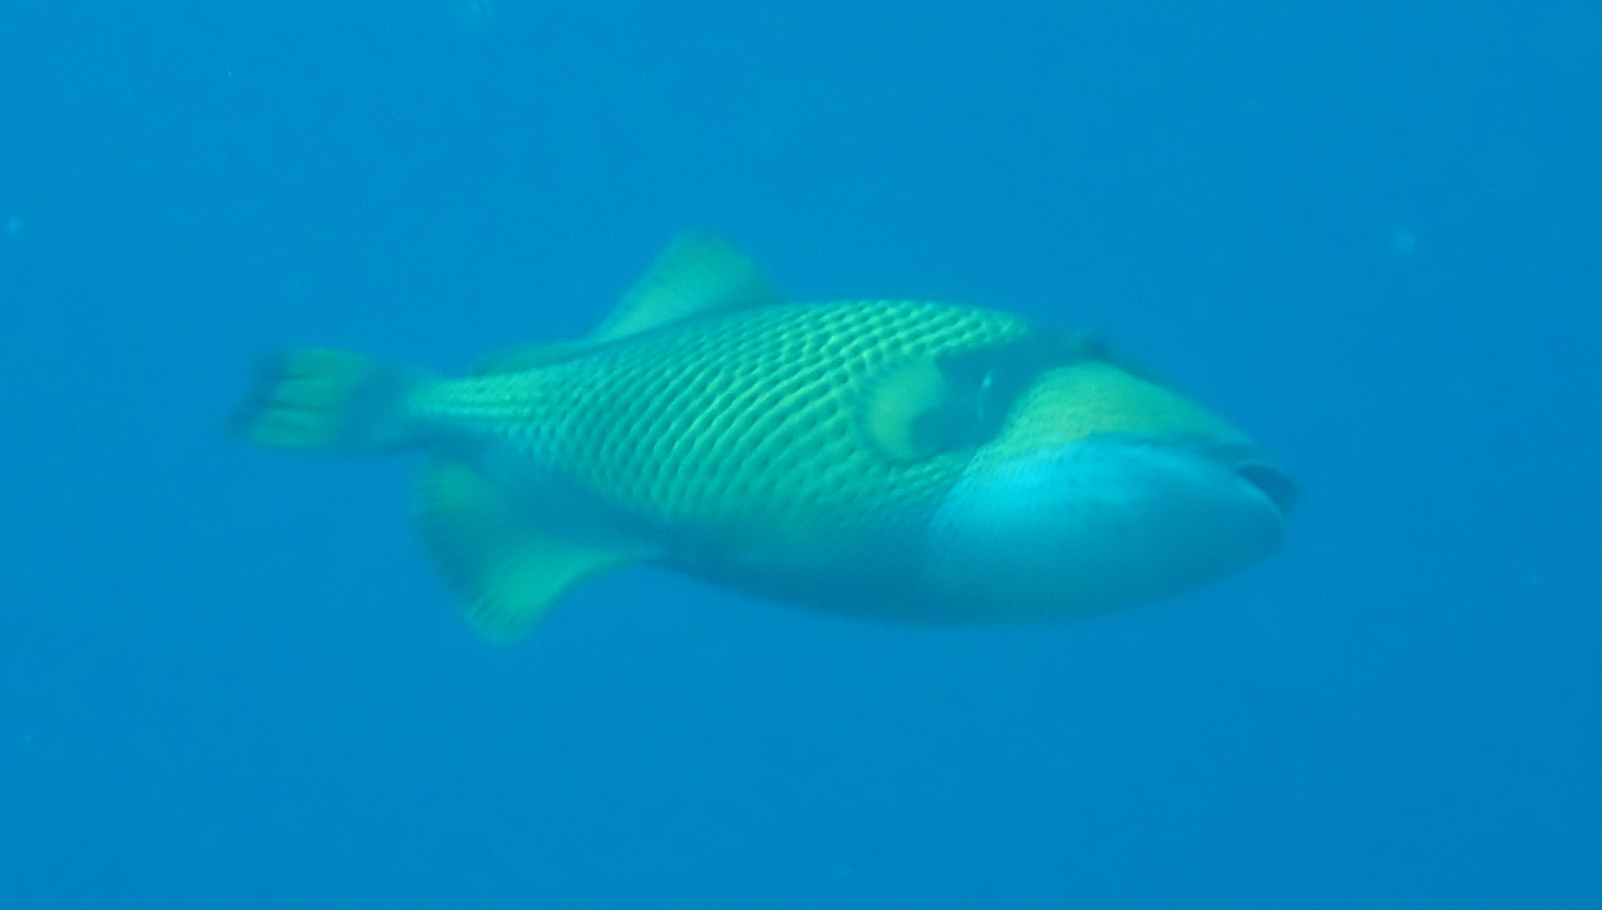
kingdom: Animalia
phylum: Chordata
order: Tetraodontiformes
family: Balistidae
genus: Balistoides
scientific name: Balistoides viridescens
